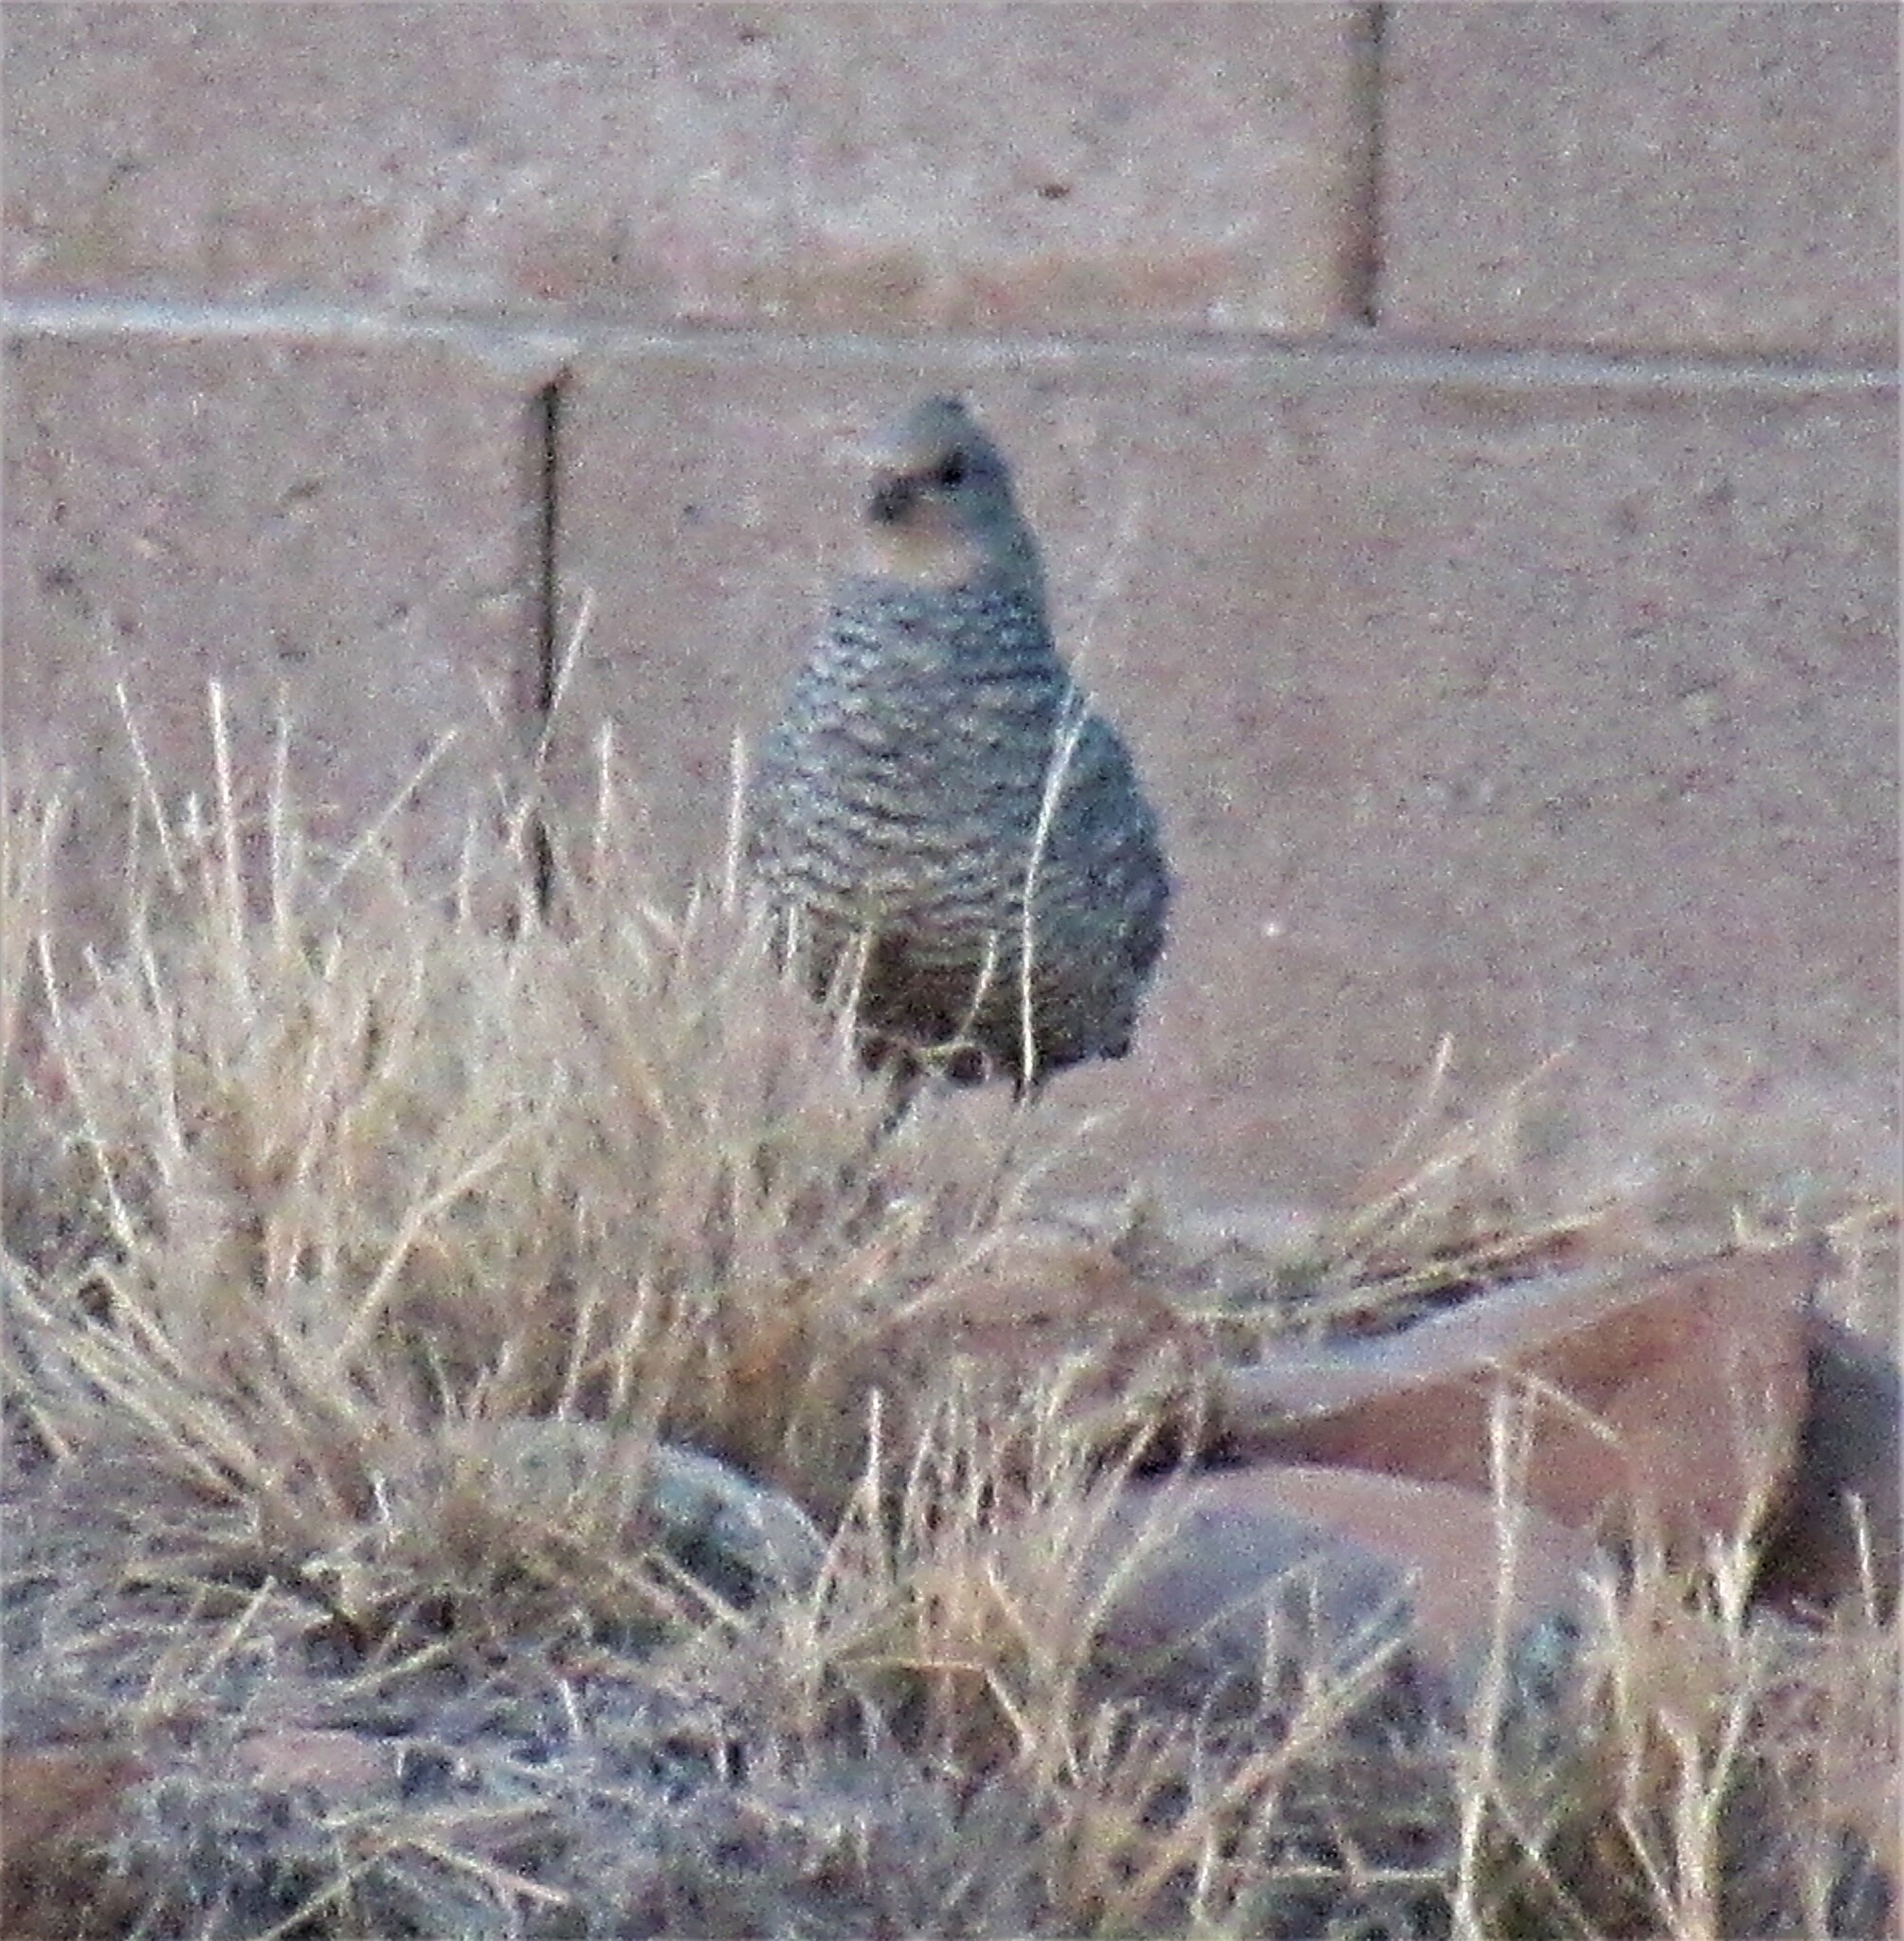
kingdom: Animalia
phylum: Chordata
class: Aves
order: Galliformes
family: Odontophoridae
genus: Callipepla
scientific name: Callipepla squamata
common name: Scaled quail
